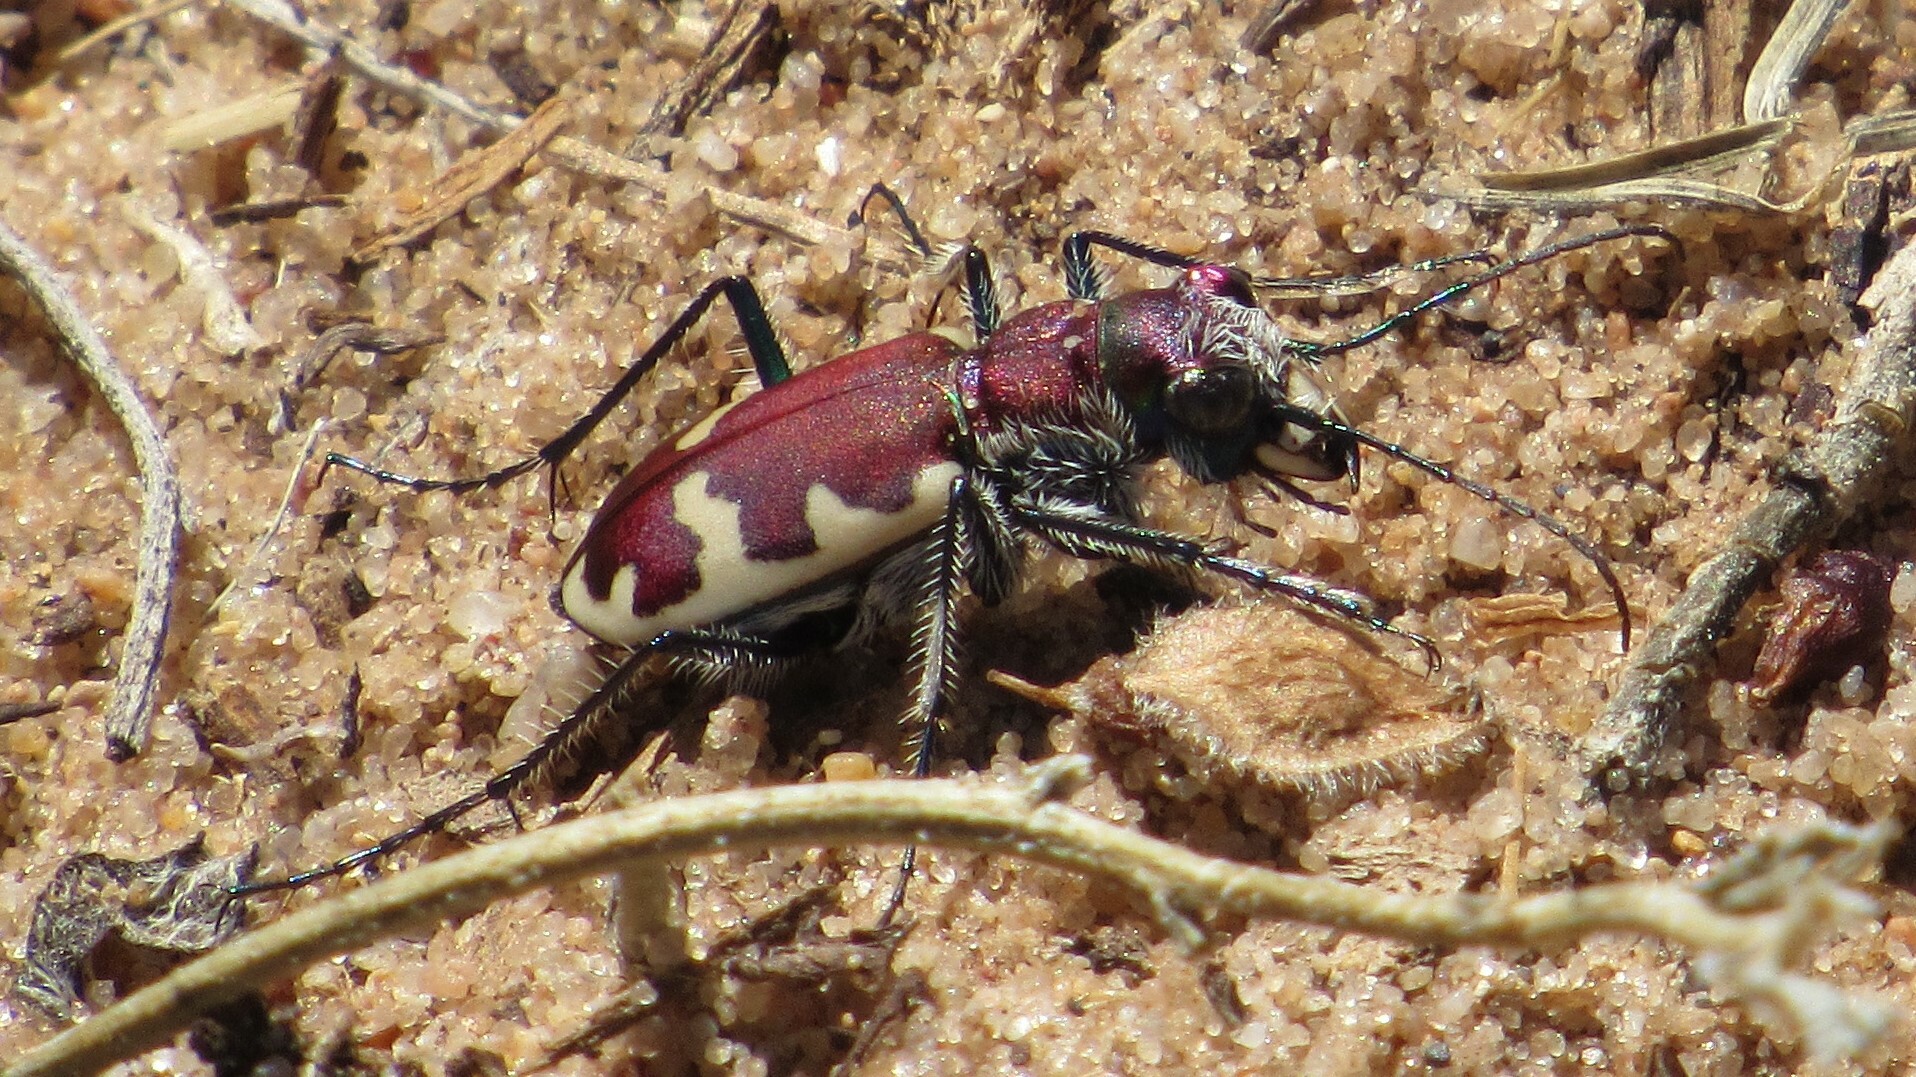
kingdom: Animalia
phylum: Arthropoda
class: Insecta
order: Coleoptera
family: Carabidae
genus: Cicindela
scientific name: Cicindela formosa
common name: Big sand tiger beetle
